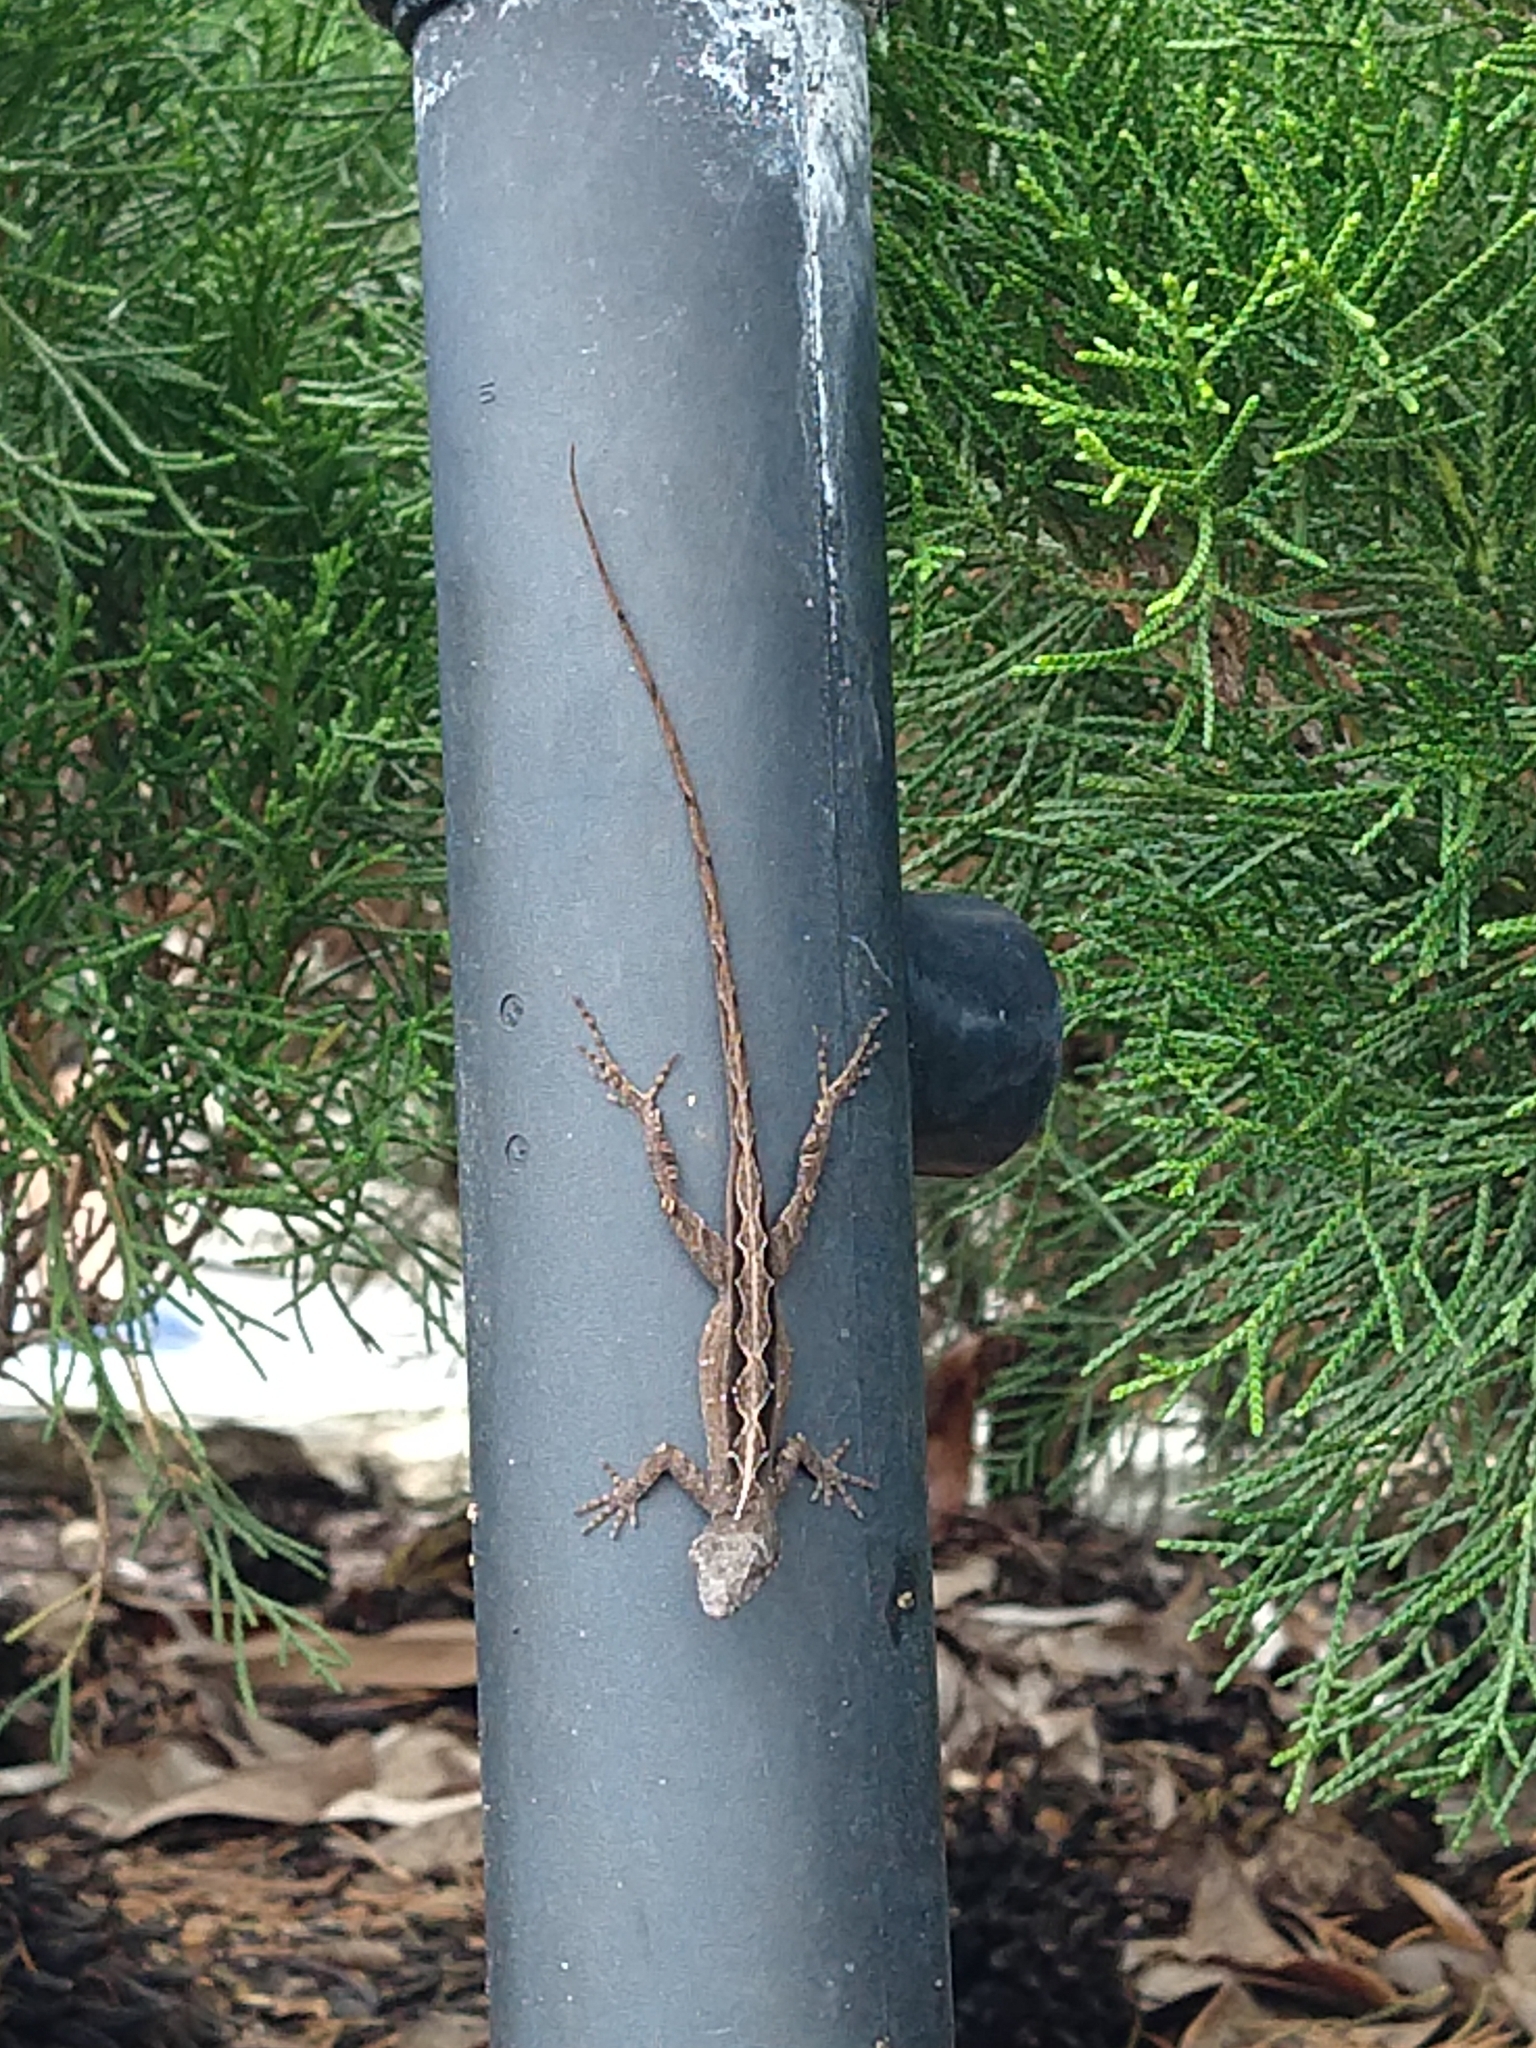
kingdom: Animalia
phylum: Chordata
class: Squamata
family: Dactyloidae
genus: Anolis
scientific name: Anolis sagrei
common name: Brown anole
